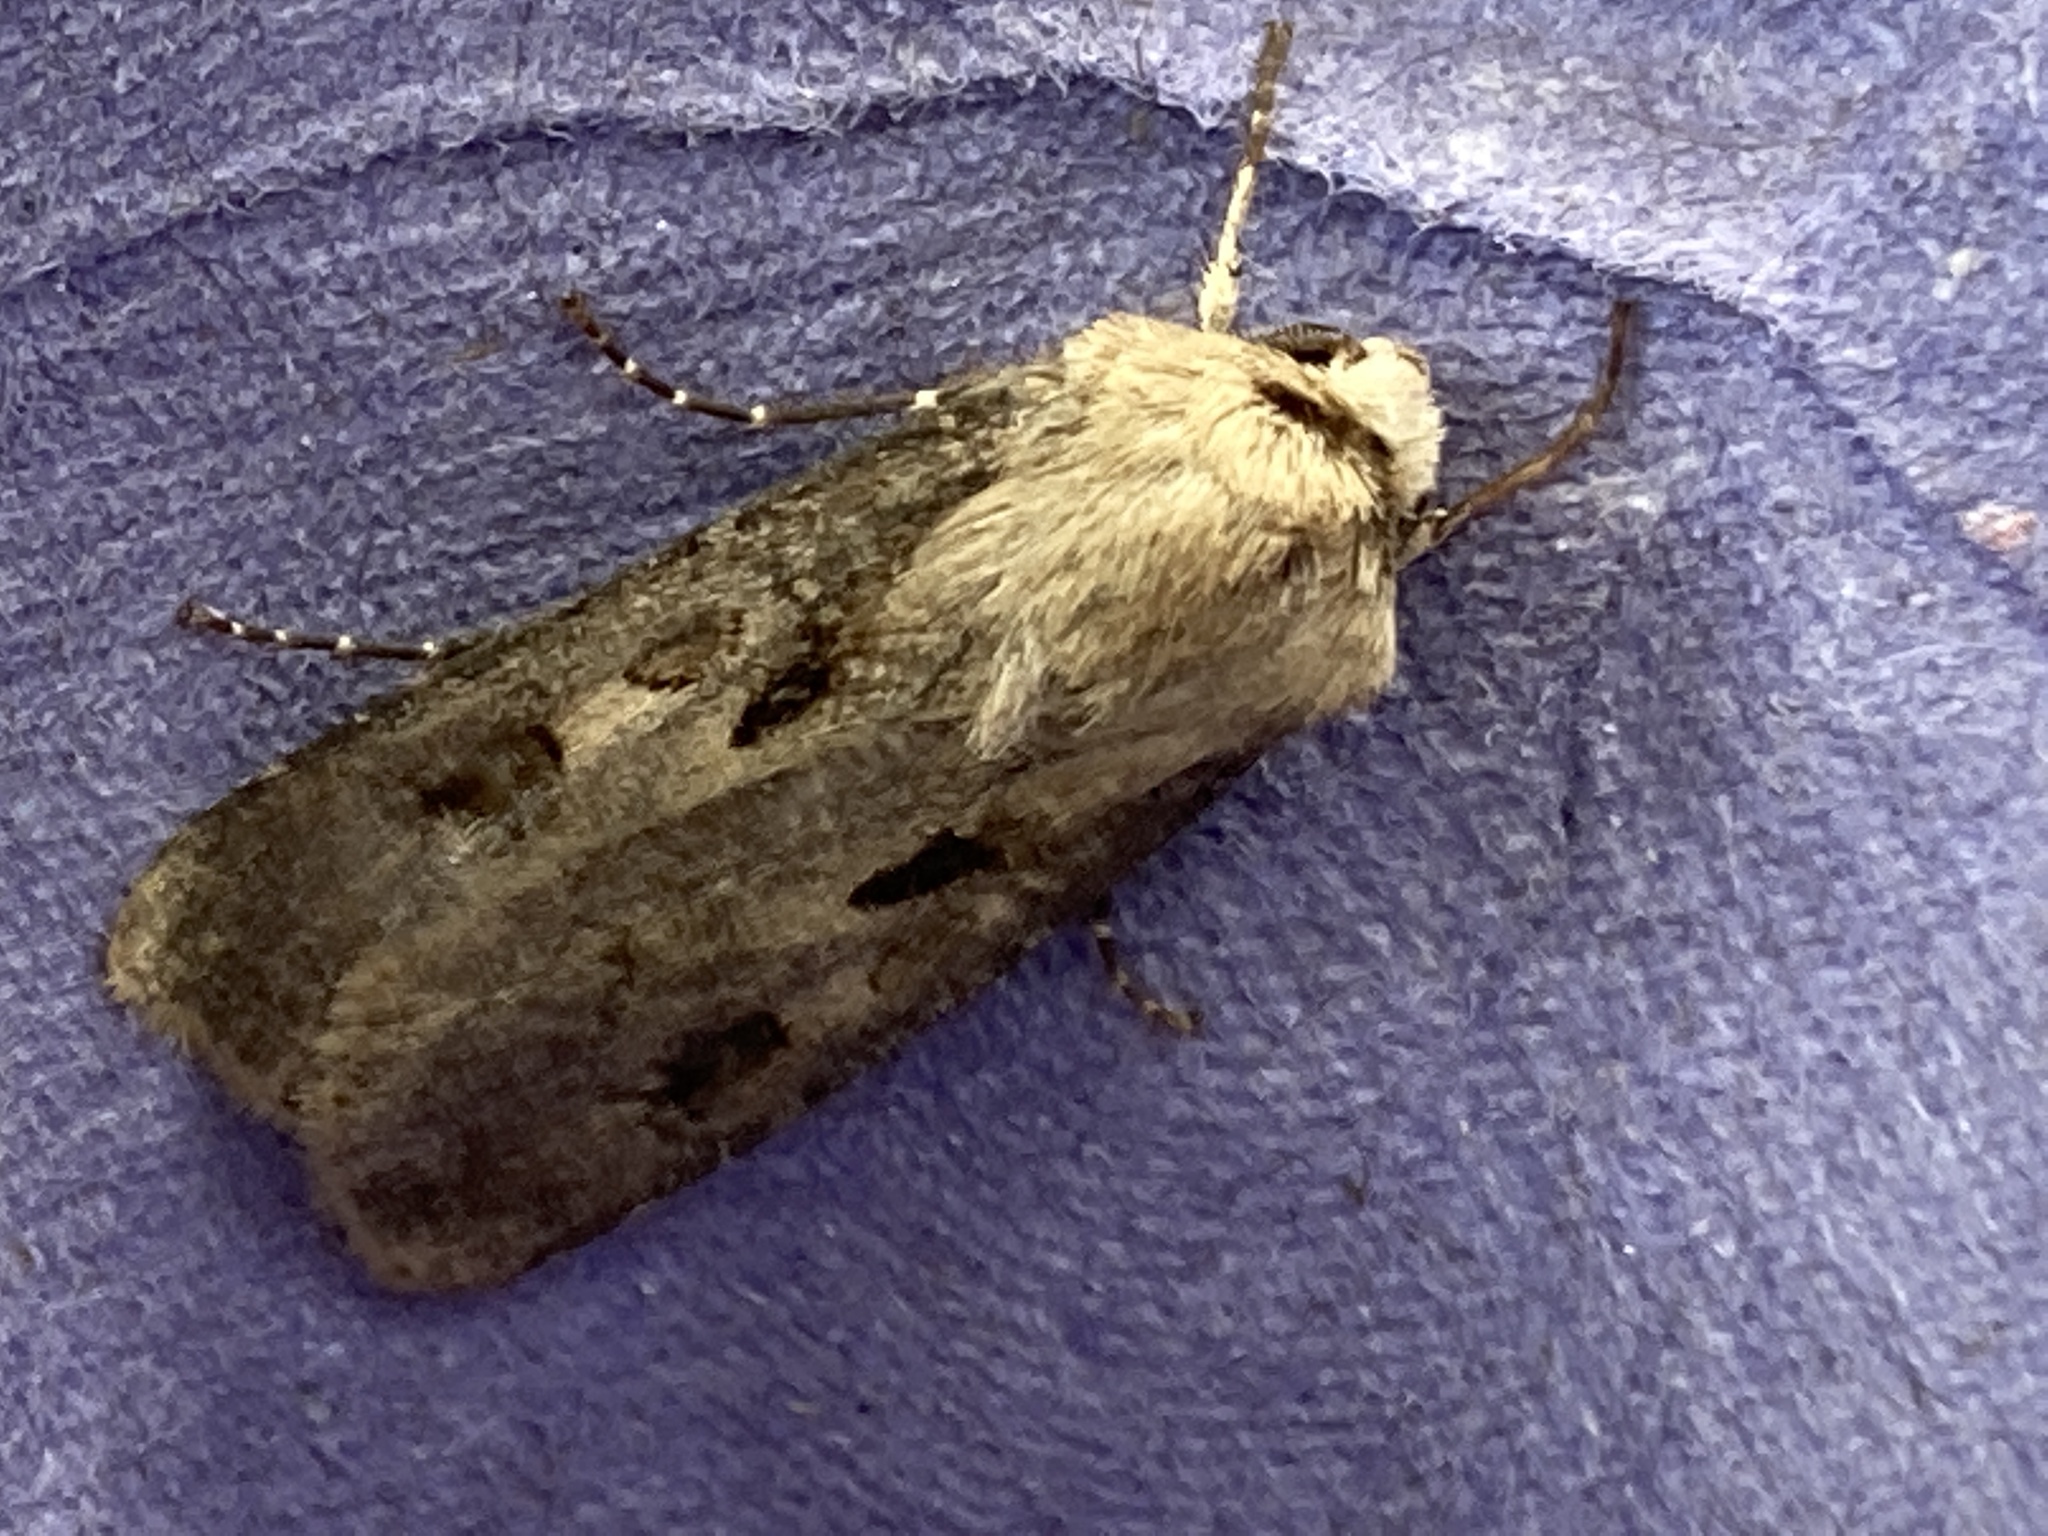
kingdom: Animalia
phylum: Arthropoda
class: Insecta
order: Lepidoptera
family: Noctuidae
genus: Agrotis
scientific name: Agrotis exclamationis
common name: Heart and dart
